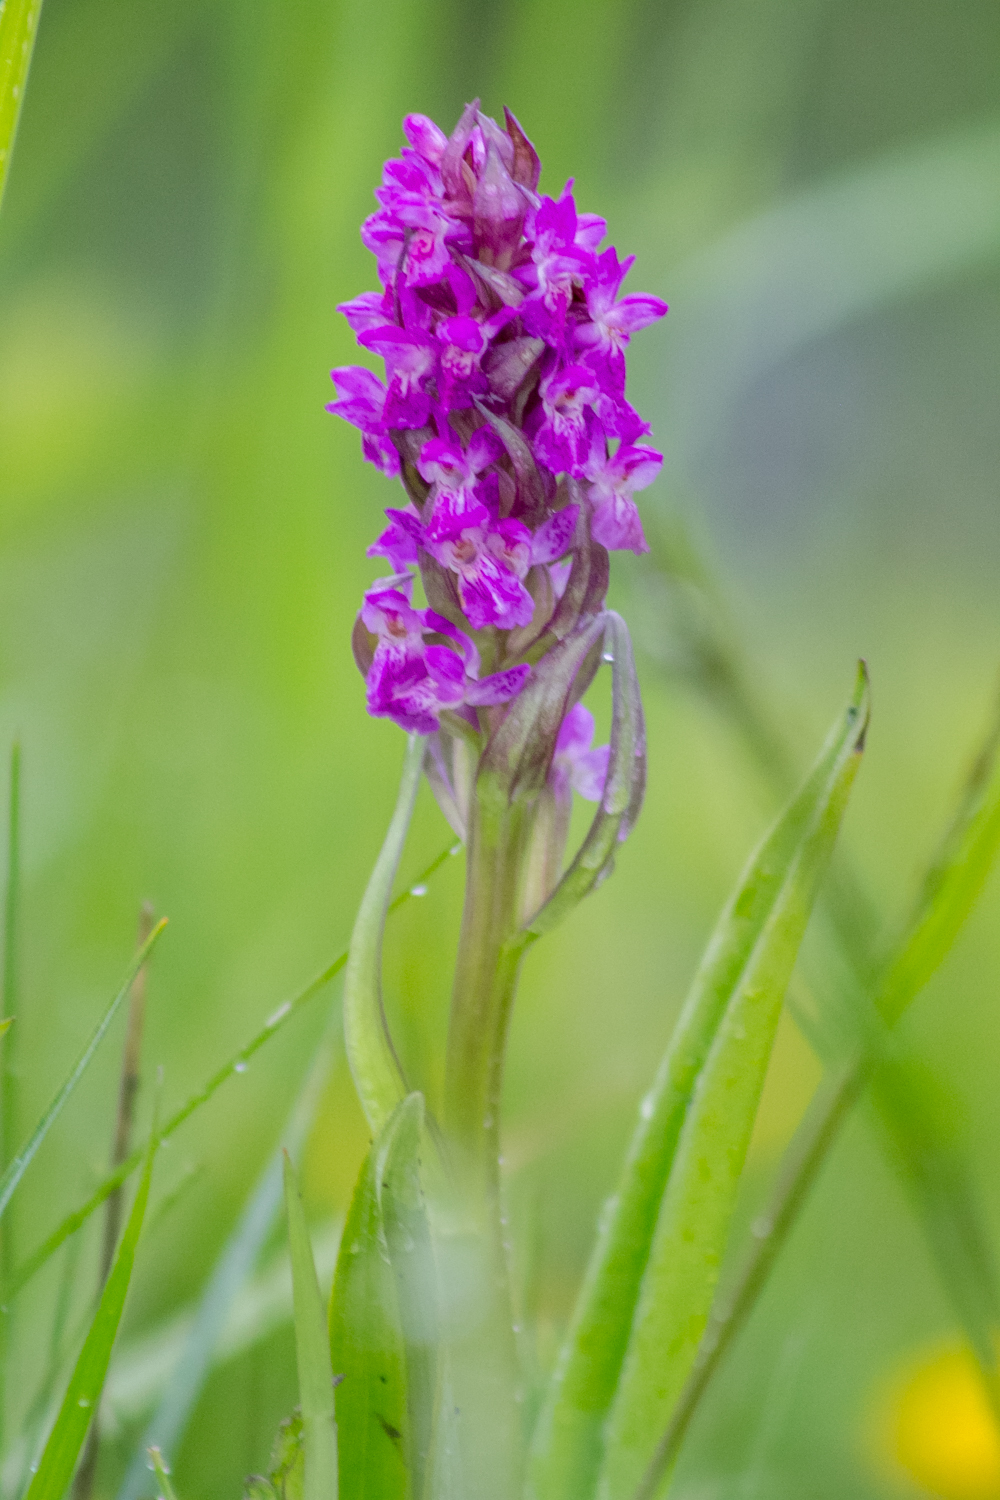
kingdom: Plantae
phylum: Tracheophyta
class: Liliopsida
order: Asparagales
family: Orchidaceae
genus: Dactylorhiza
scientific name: Dactylorhiza incarnata
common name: Early marsh-orchid
